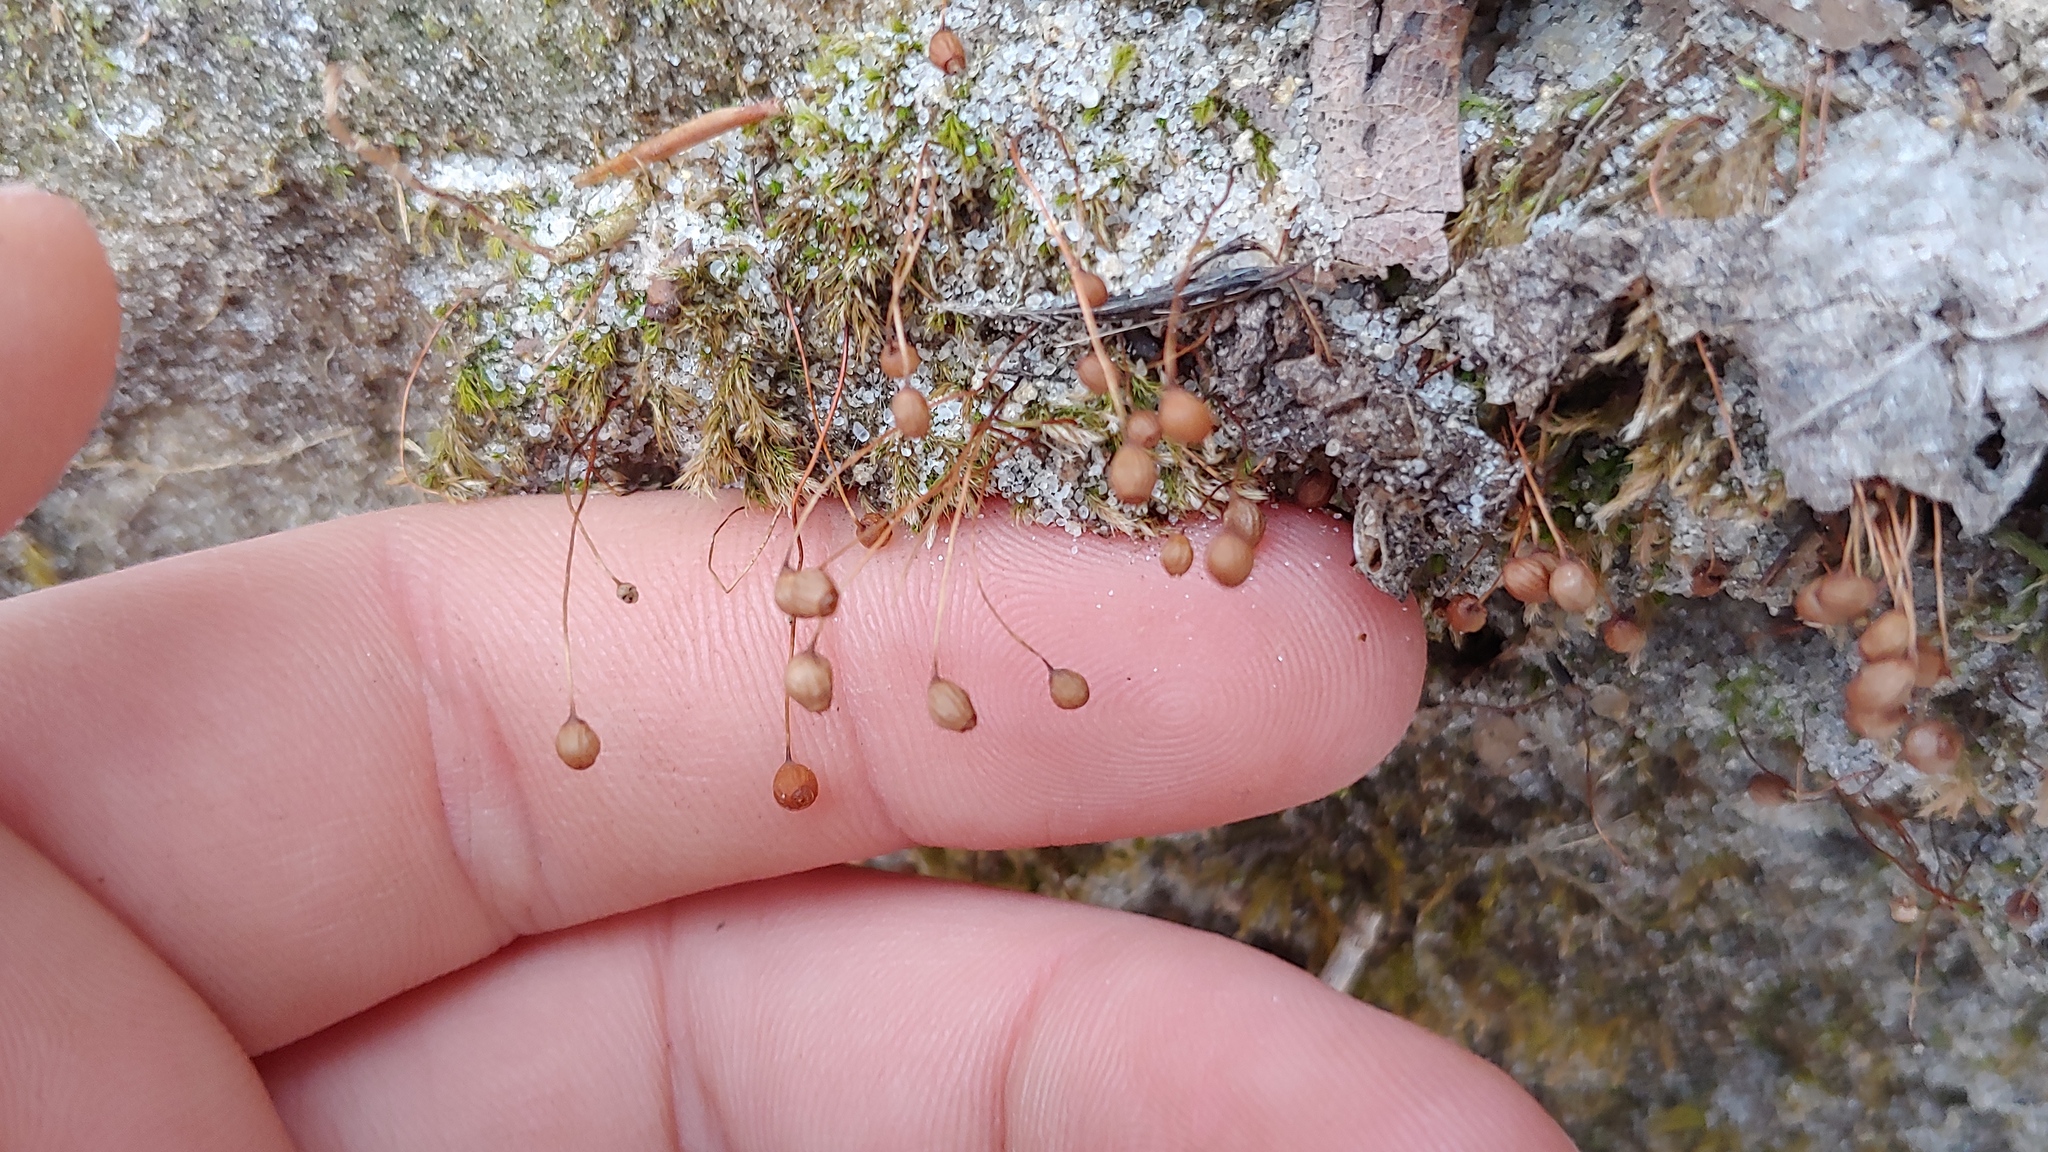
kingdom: Plantae
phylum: Bryophyta
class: Bryopsida
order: Bartramiales
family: Bartramiaceae
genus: Bartramia
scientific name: Bartramia ithyphylla
